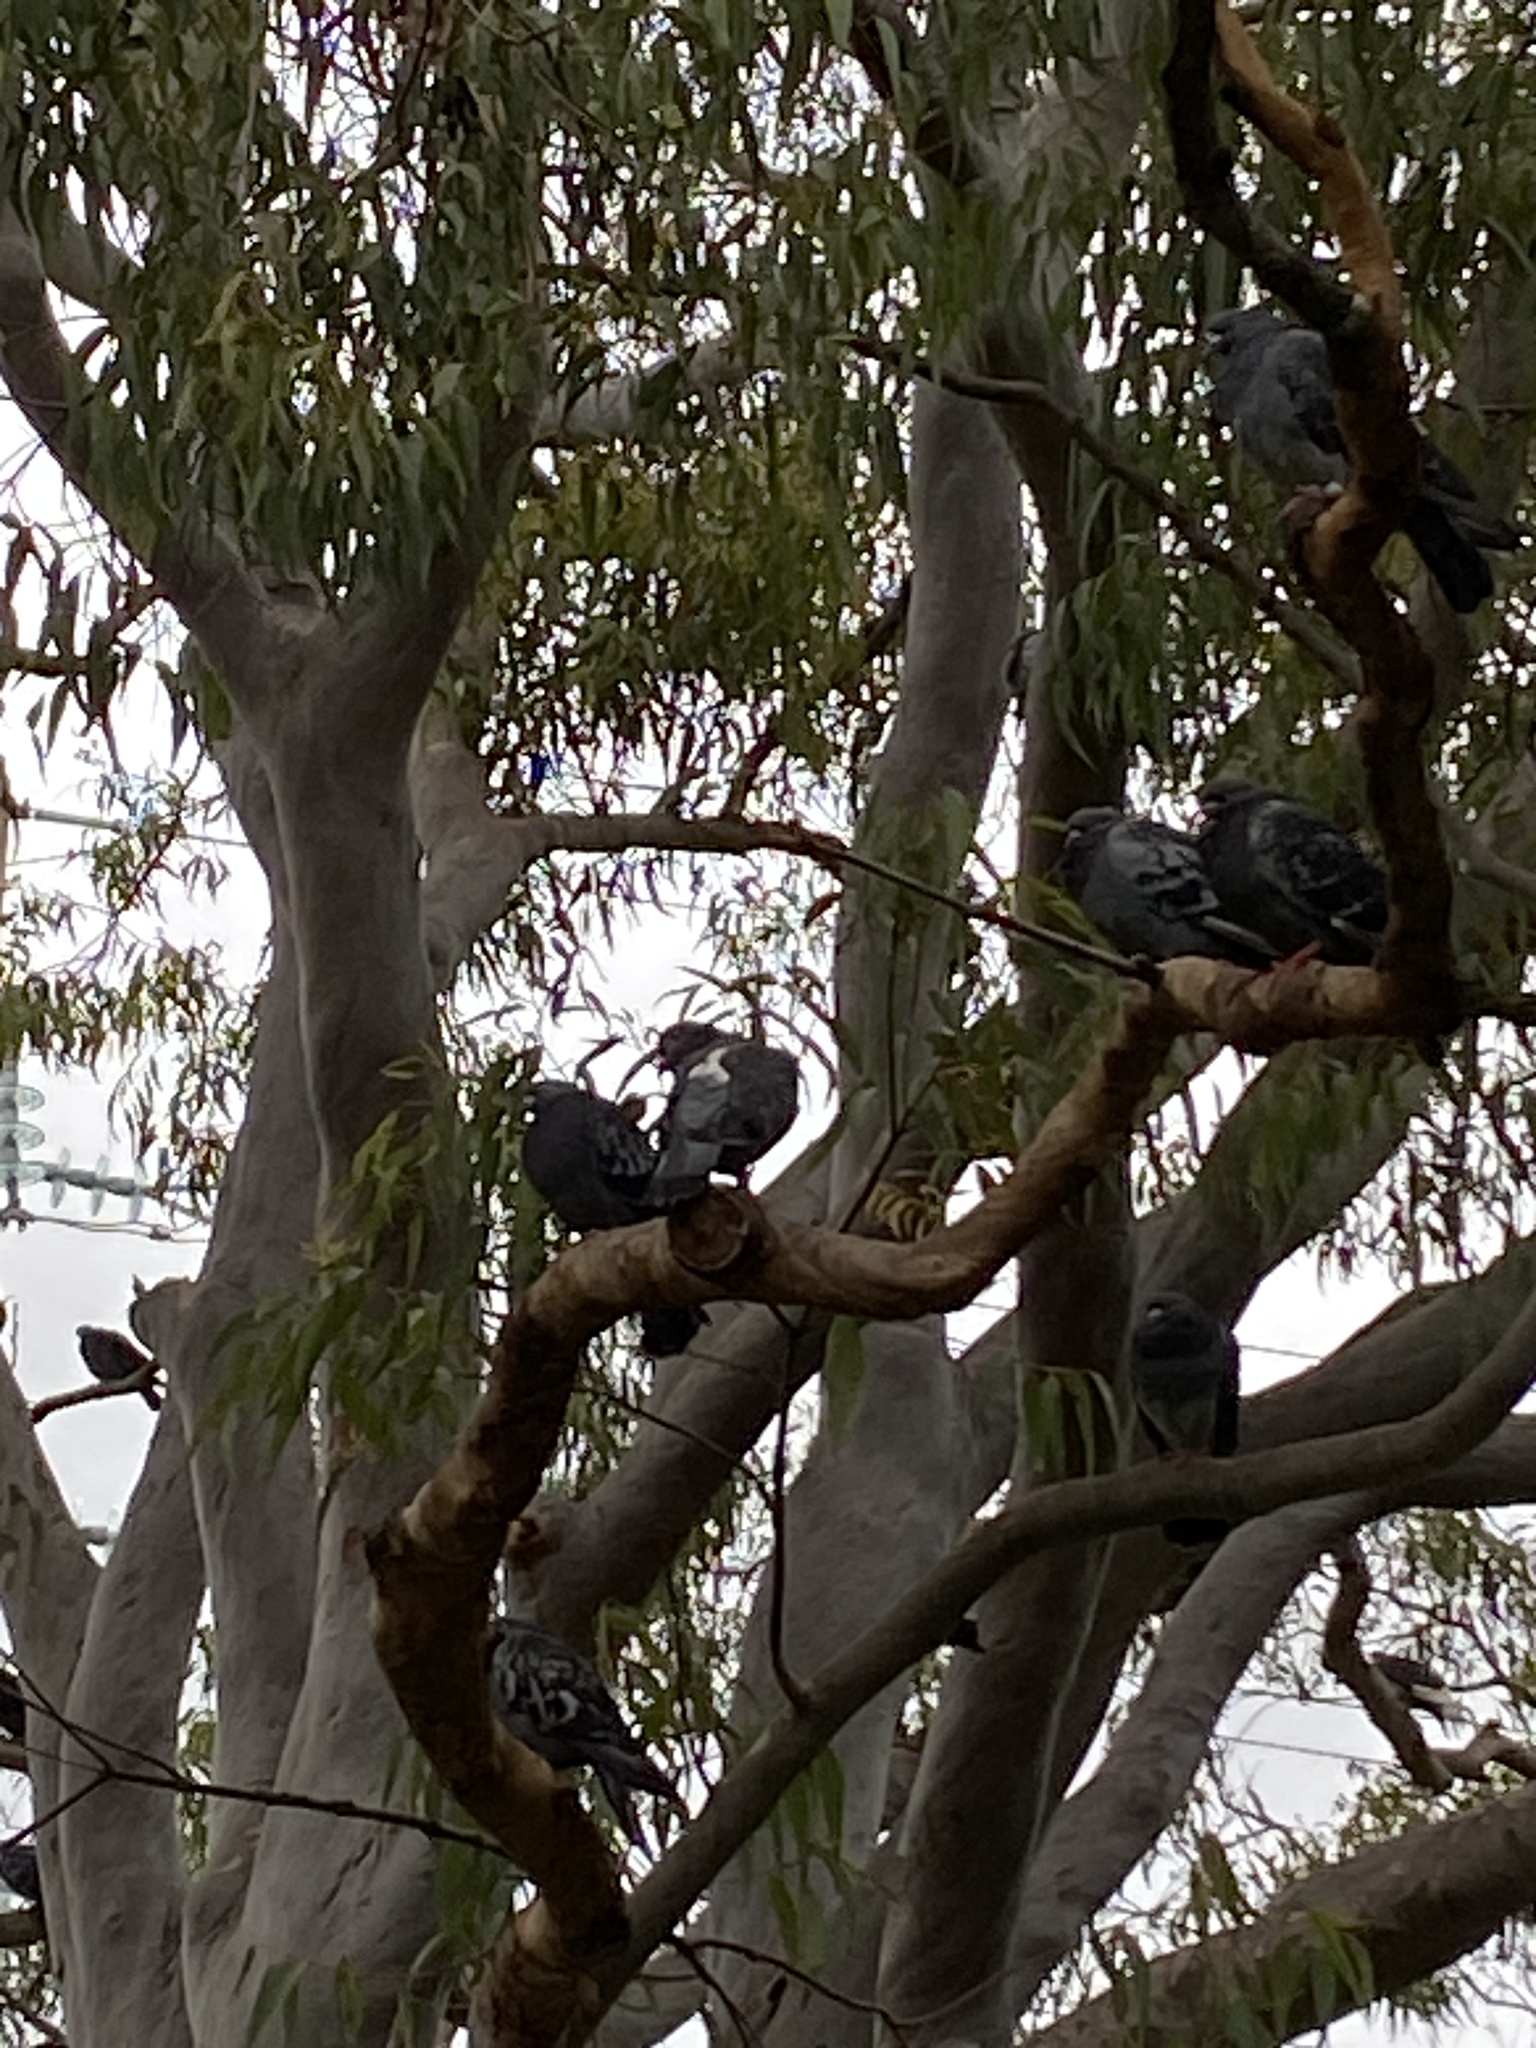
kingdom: Animalia
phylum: Chordata
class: Aves
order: Columbiformes
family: Columbidae
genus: Columba
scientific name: Columba livia
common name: Rock pigeon
